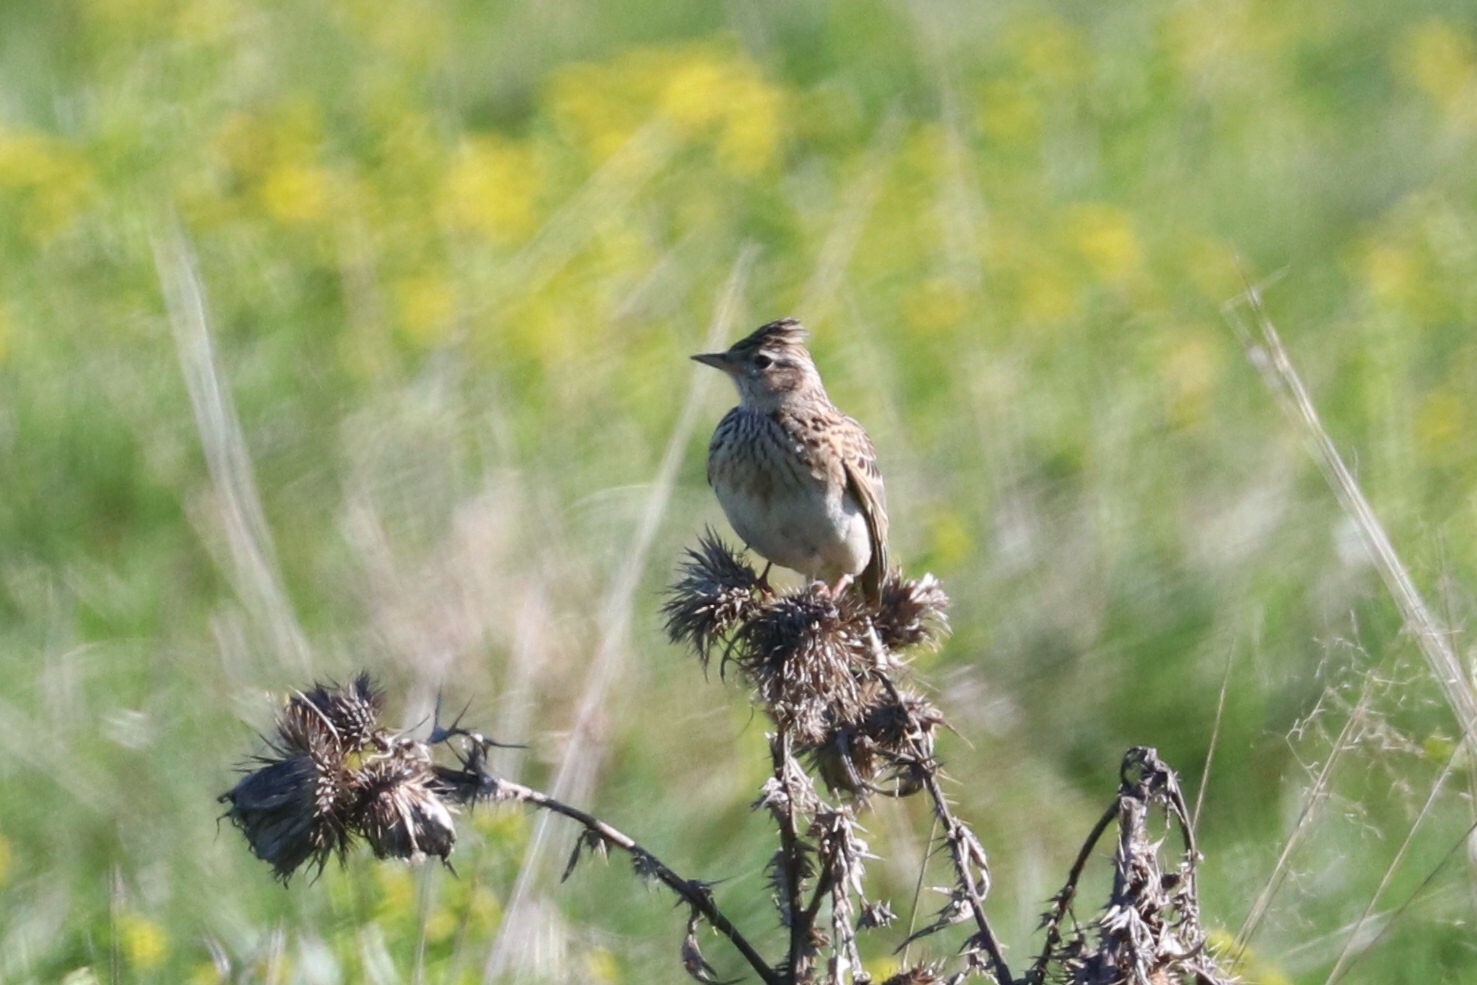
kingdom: Animalia
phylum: Chordata
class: Aves
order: Passeriformes
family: Alaudidae
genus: Alauda
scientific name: Alauda arvensis
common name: Eurasian skylark
